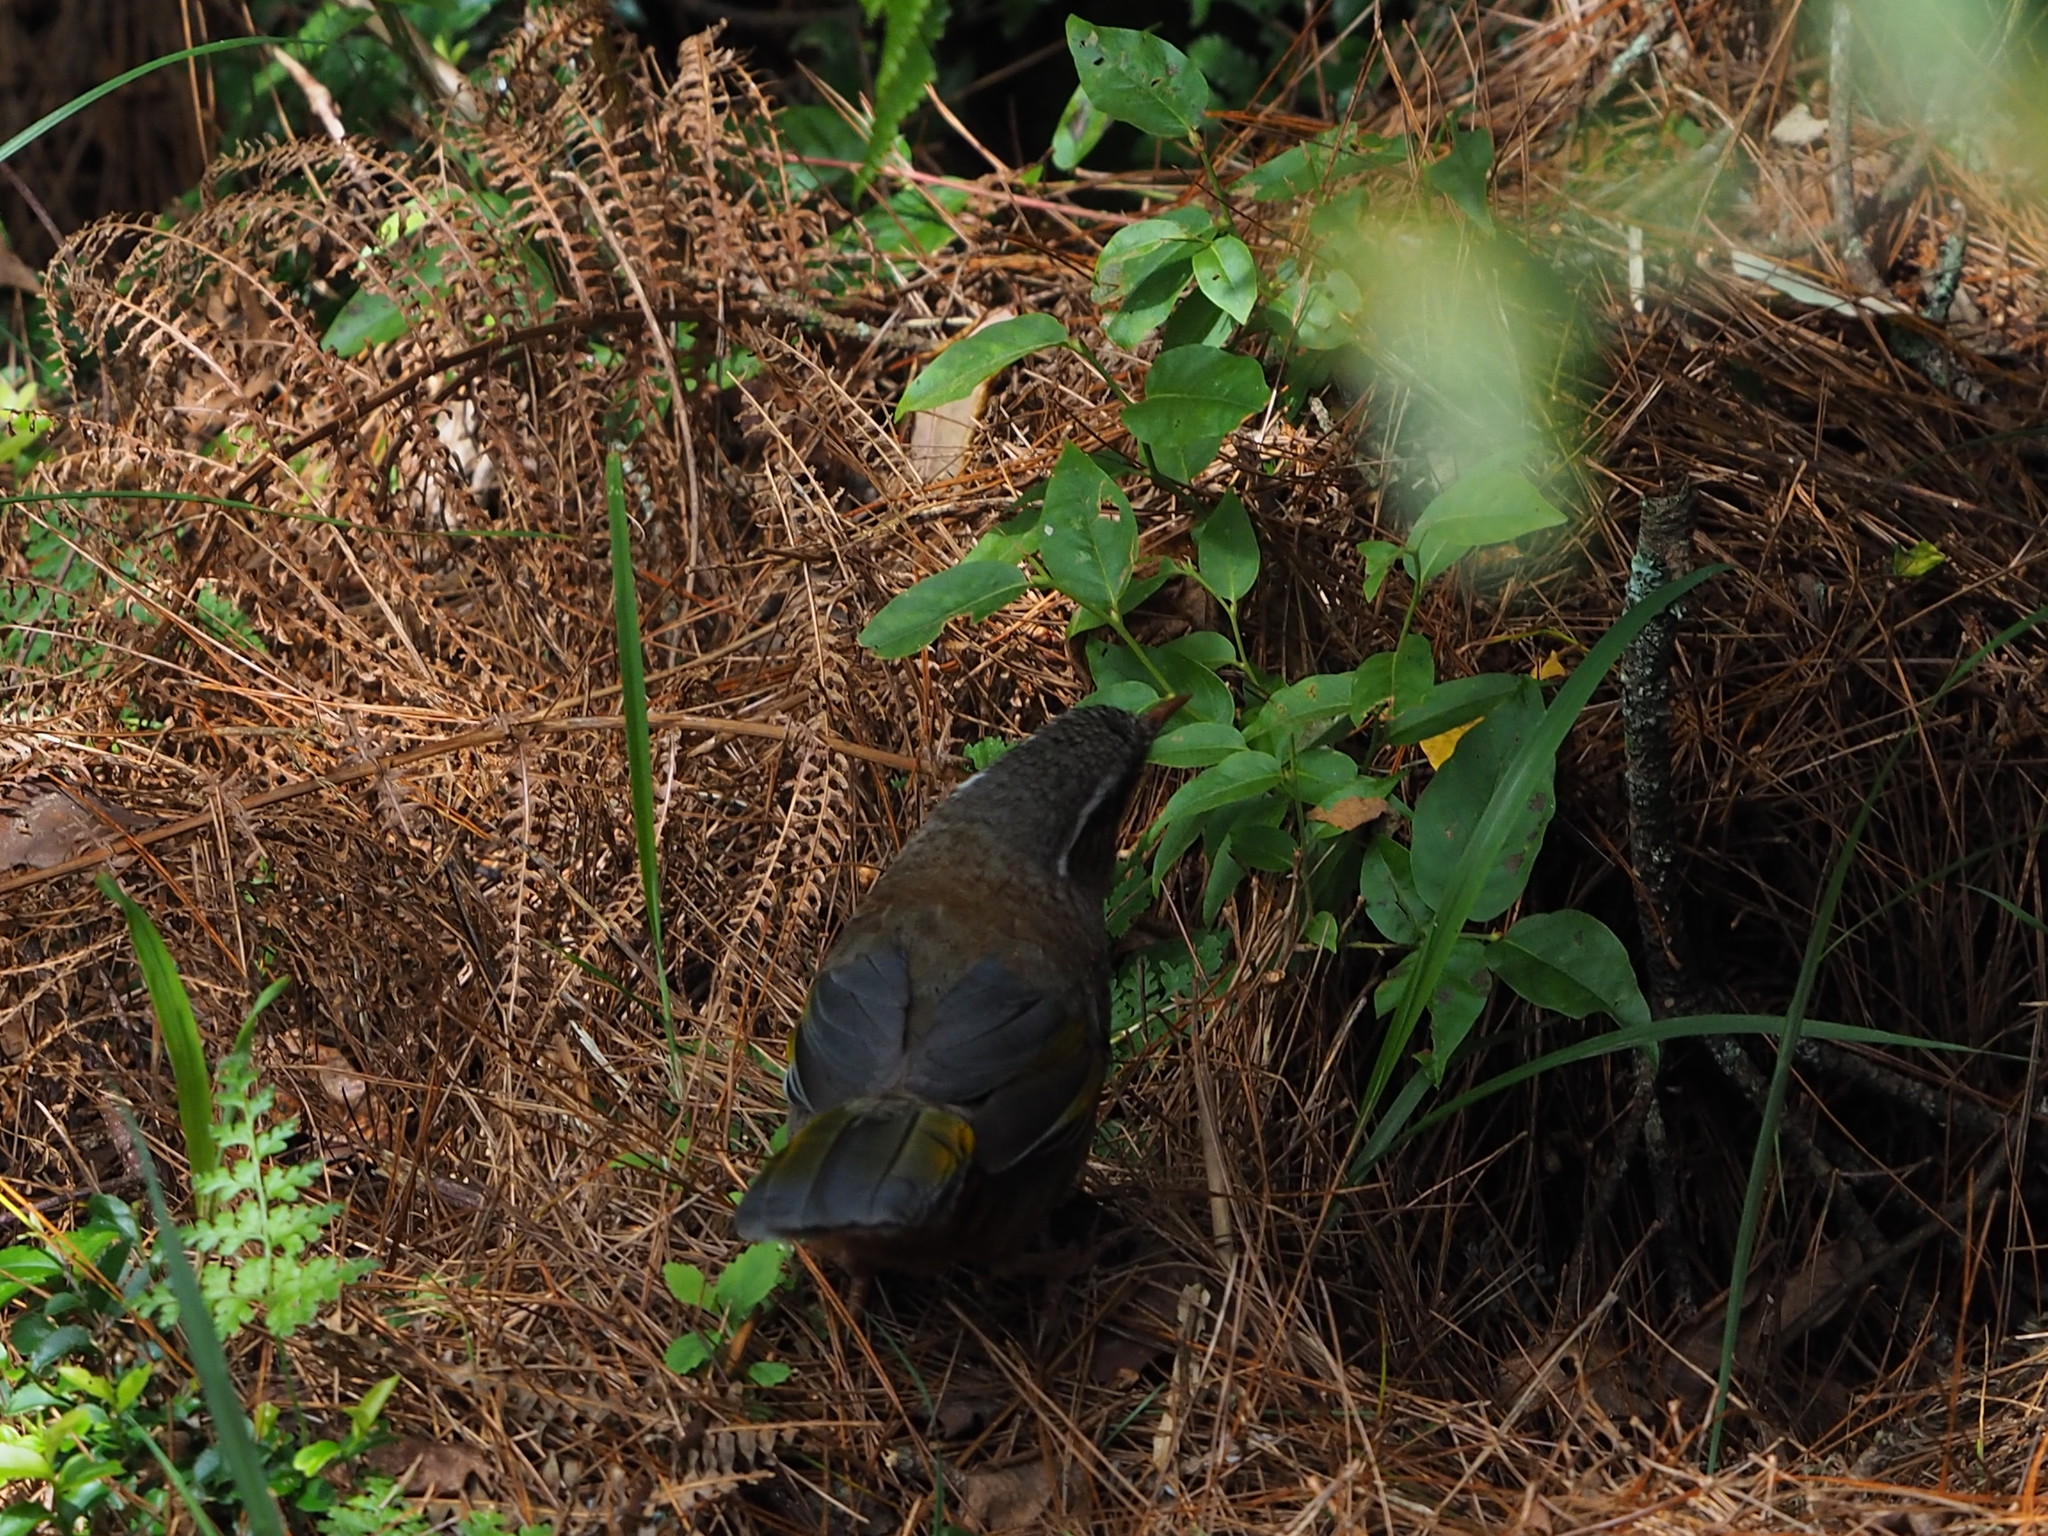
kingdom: Animalia
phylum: Chordata
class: Aves
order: Passeriformes
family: Leiothrichidae
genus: Trochalopteron
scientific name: Trochalopteron morrisonianum
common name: White-whiskered laughingthrush
